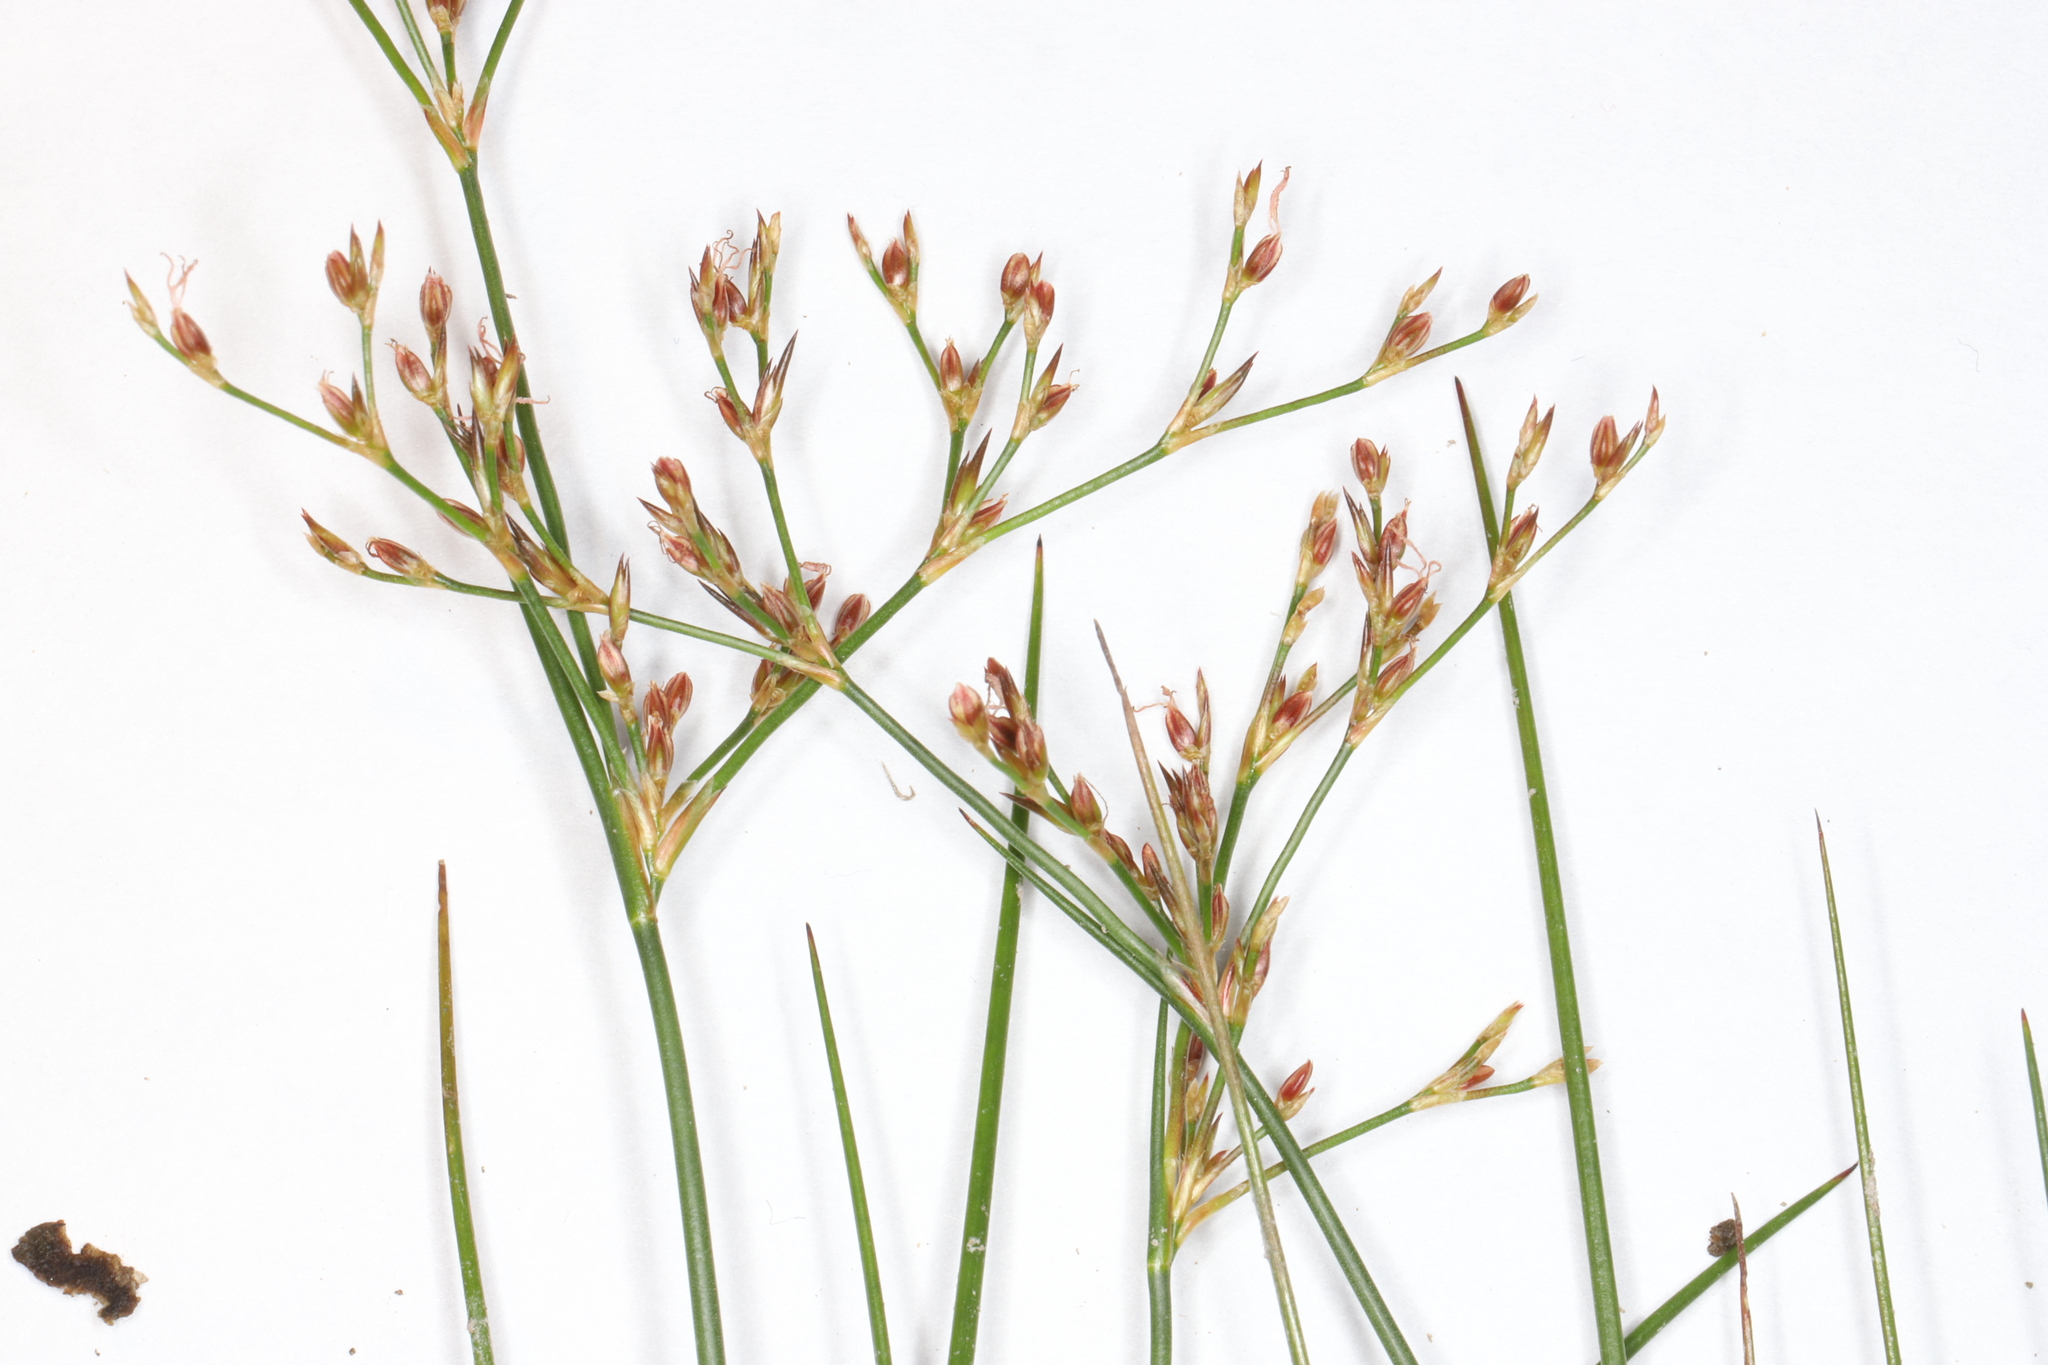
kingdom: Plantae
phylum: Tracheophyta
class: Liliopsida
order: Poales
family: Juncaceae
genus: Juncus
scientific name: Juncus pelocarpus
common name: Brown-fruited rush
